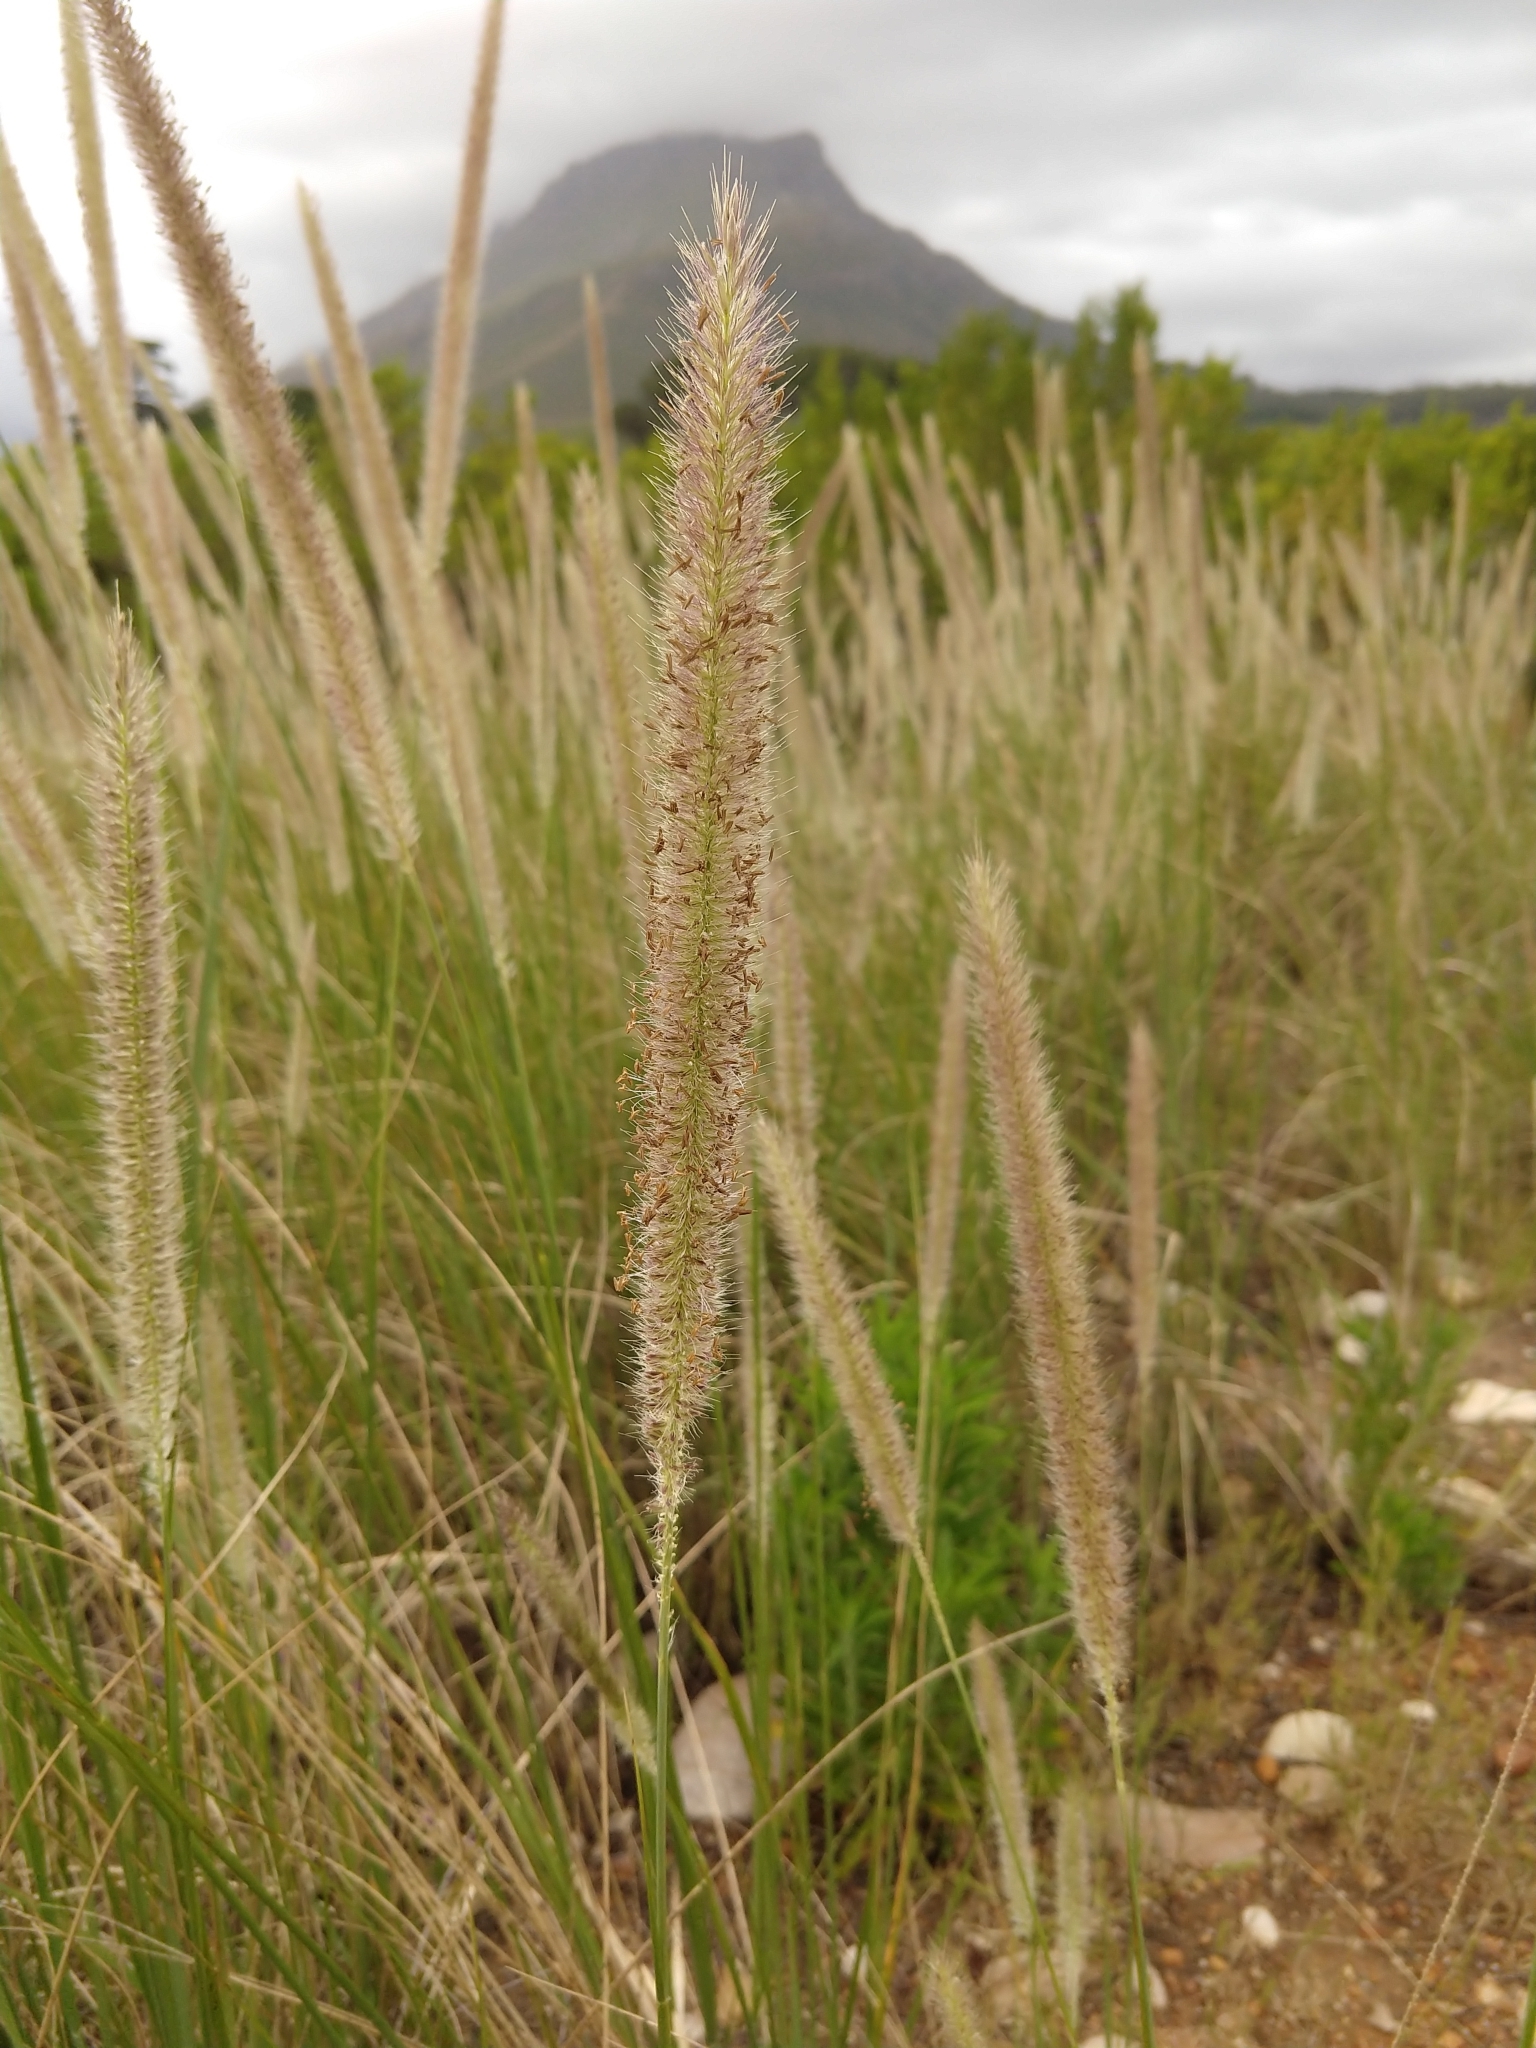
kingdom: Plantae
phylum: Tracheophyta
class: Liliopsida
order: Poales
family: Poaceae
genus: Cenchrus
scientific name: Cenchrus caudatus
